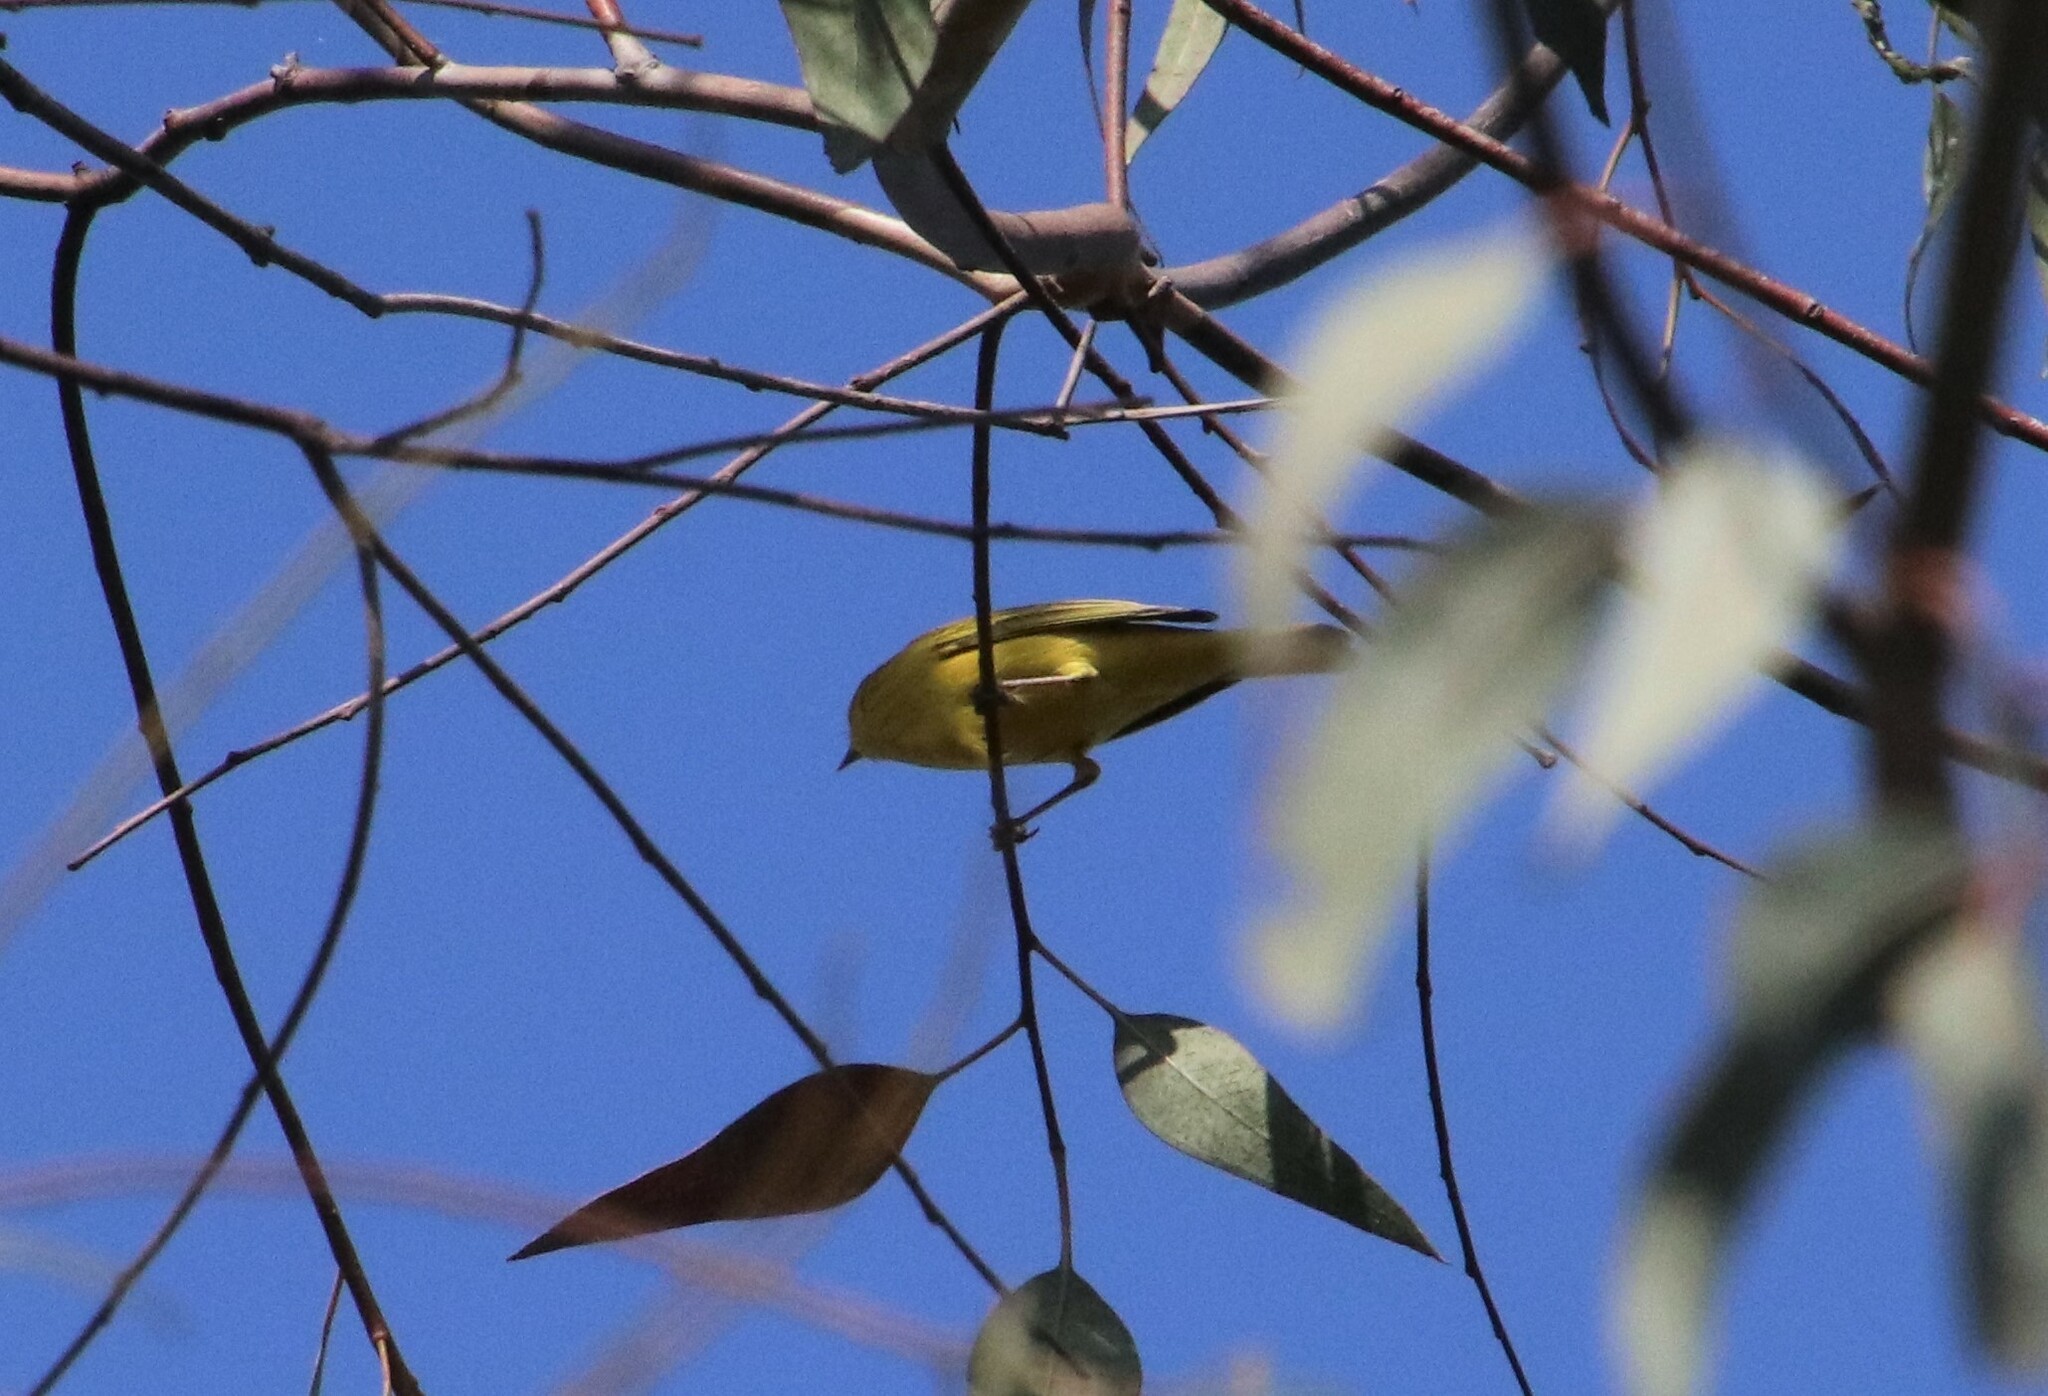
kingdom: Animalia
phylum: Chordata
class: Aves
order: Passeriformes
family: Parulidae
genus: Setophaga
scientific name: Setophaga petechia
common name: Yellow warbler
